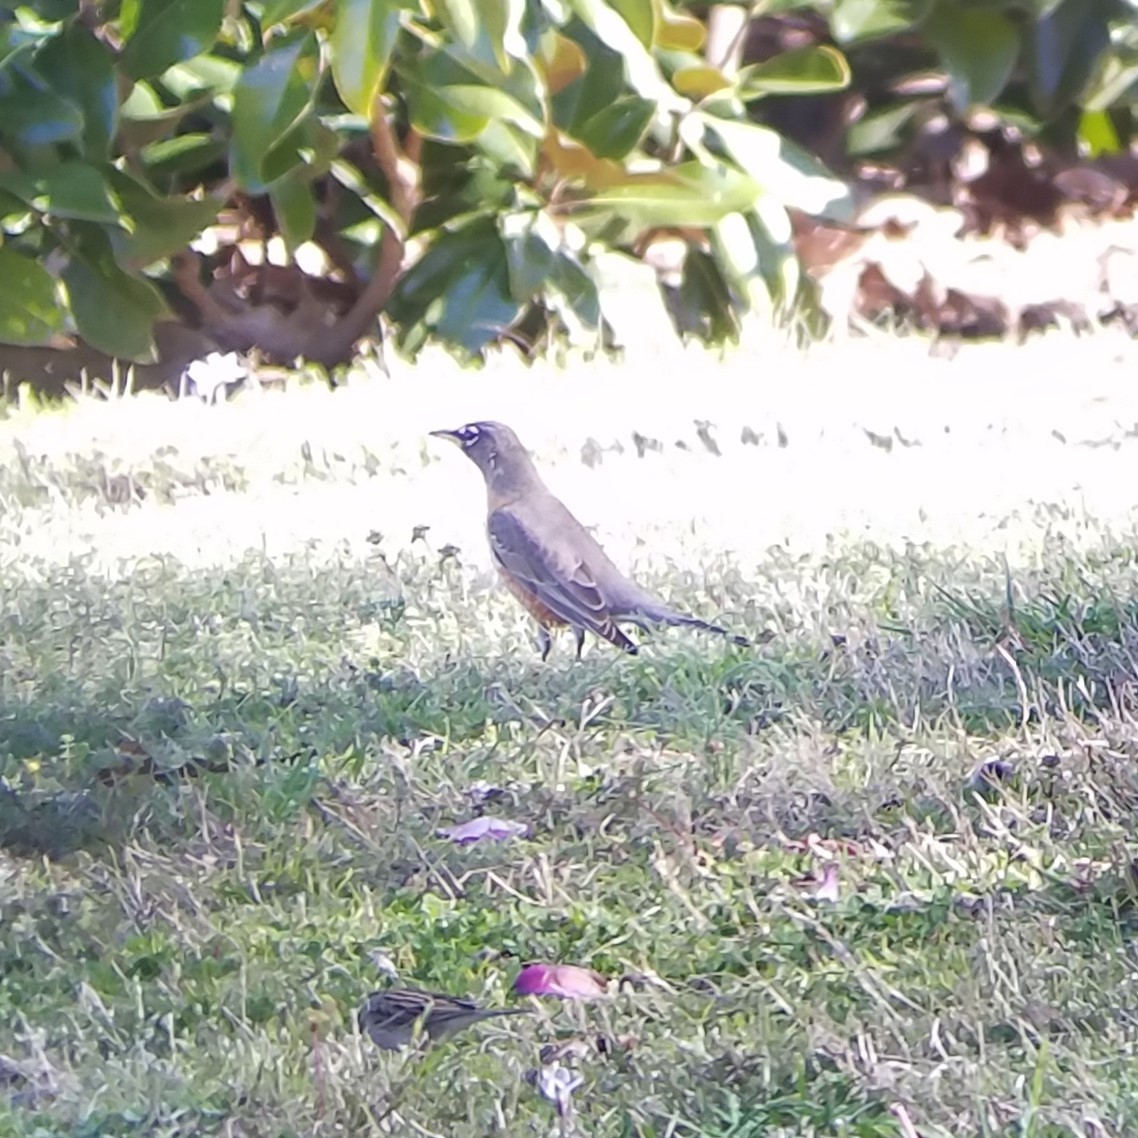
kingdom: Animalia
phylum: Chordata
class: Aves
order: Passeriformes
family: Turdidae
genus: Turdus
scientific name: Turdus migratorius
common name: American robin
